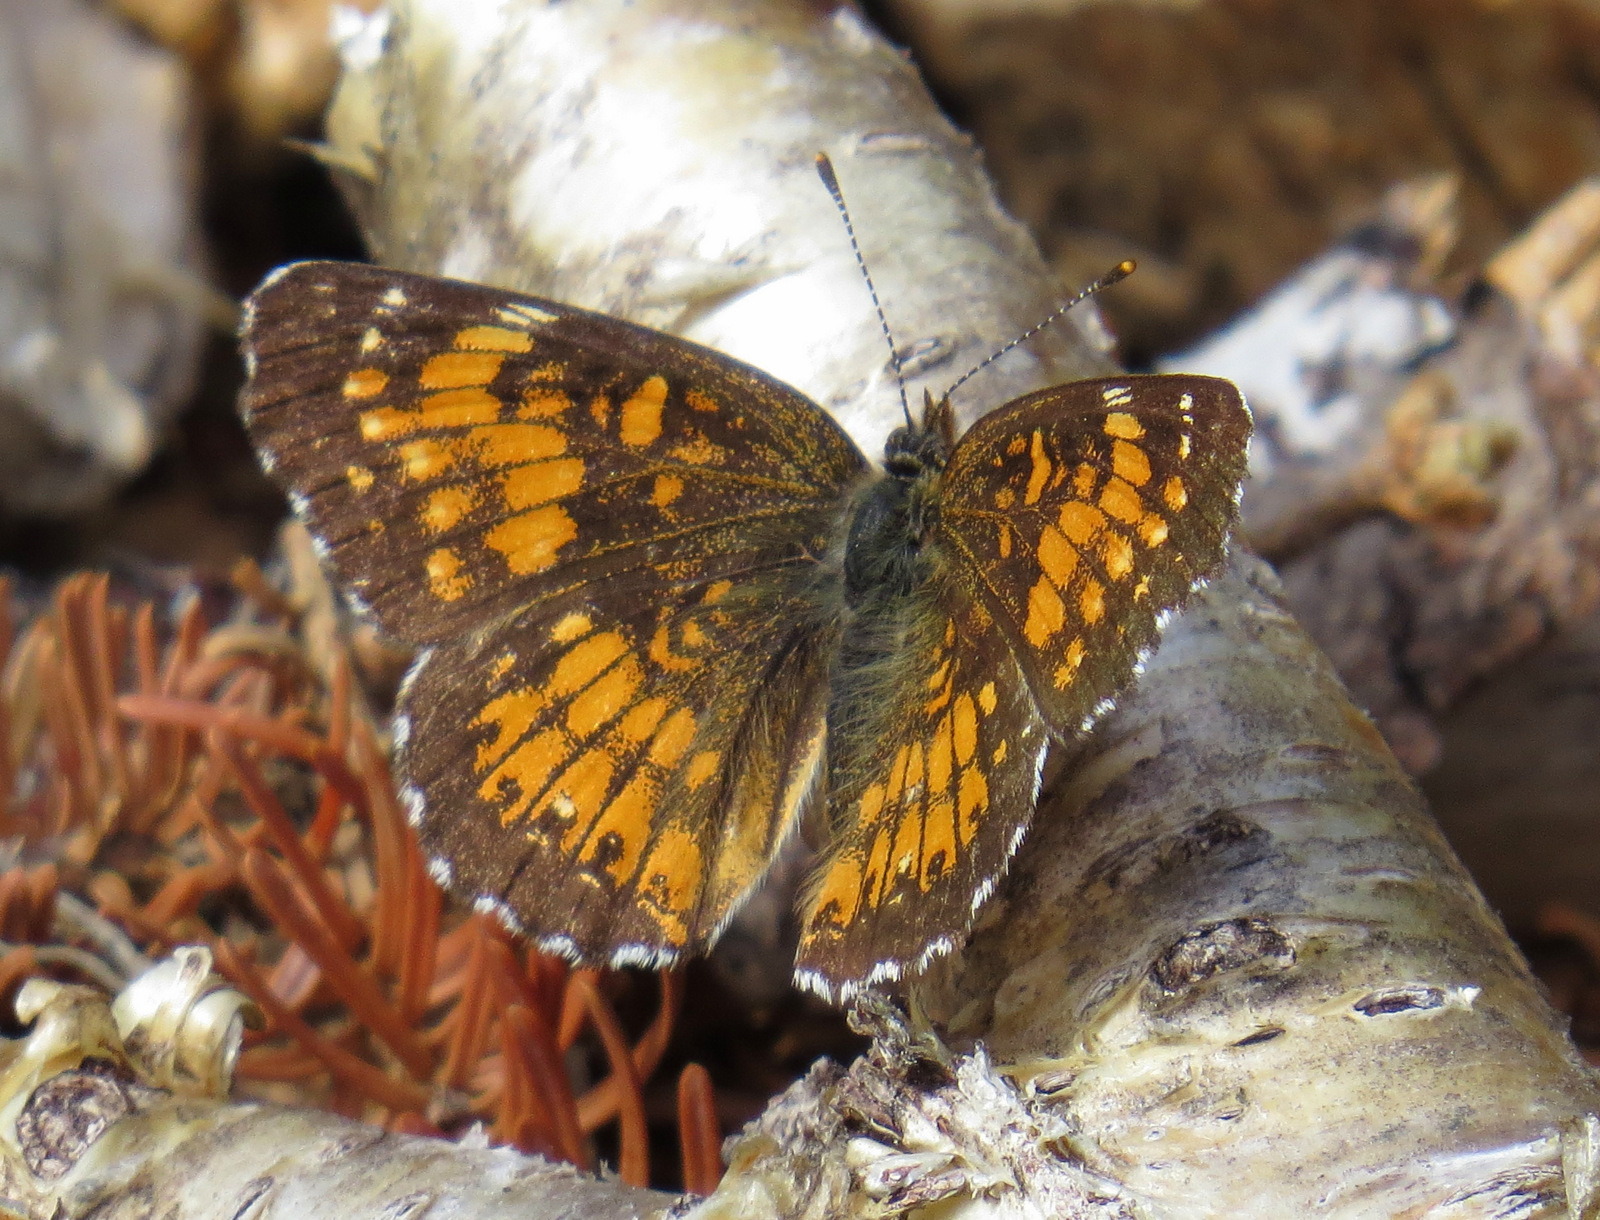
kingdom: Animalia
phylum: Arthropoda
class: Insecta
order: Lepidoptera
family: Nymphalidae
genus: Chlosyne
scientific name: Chlosyne harrisii
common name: Harris's checkerspot
